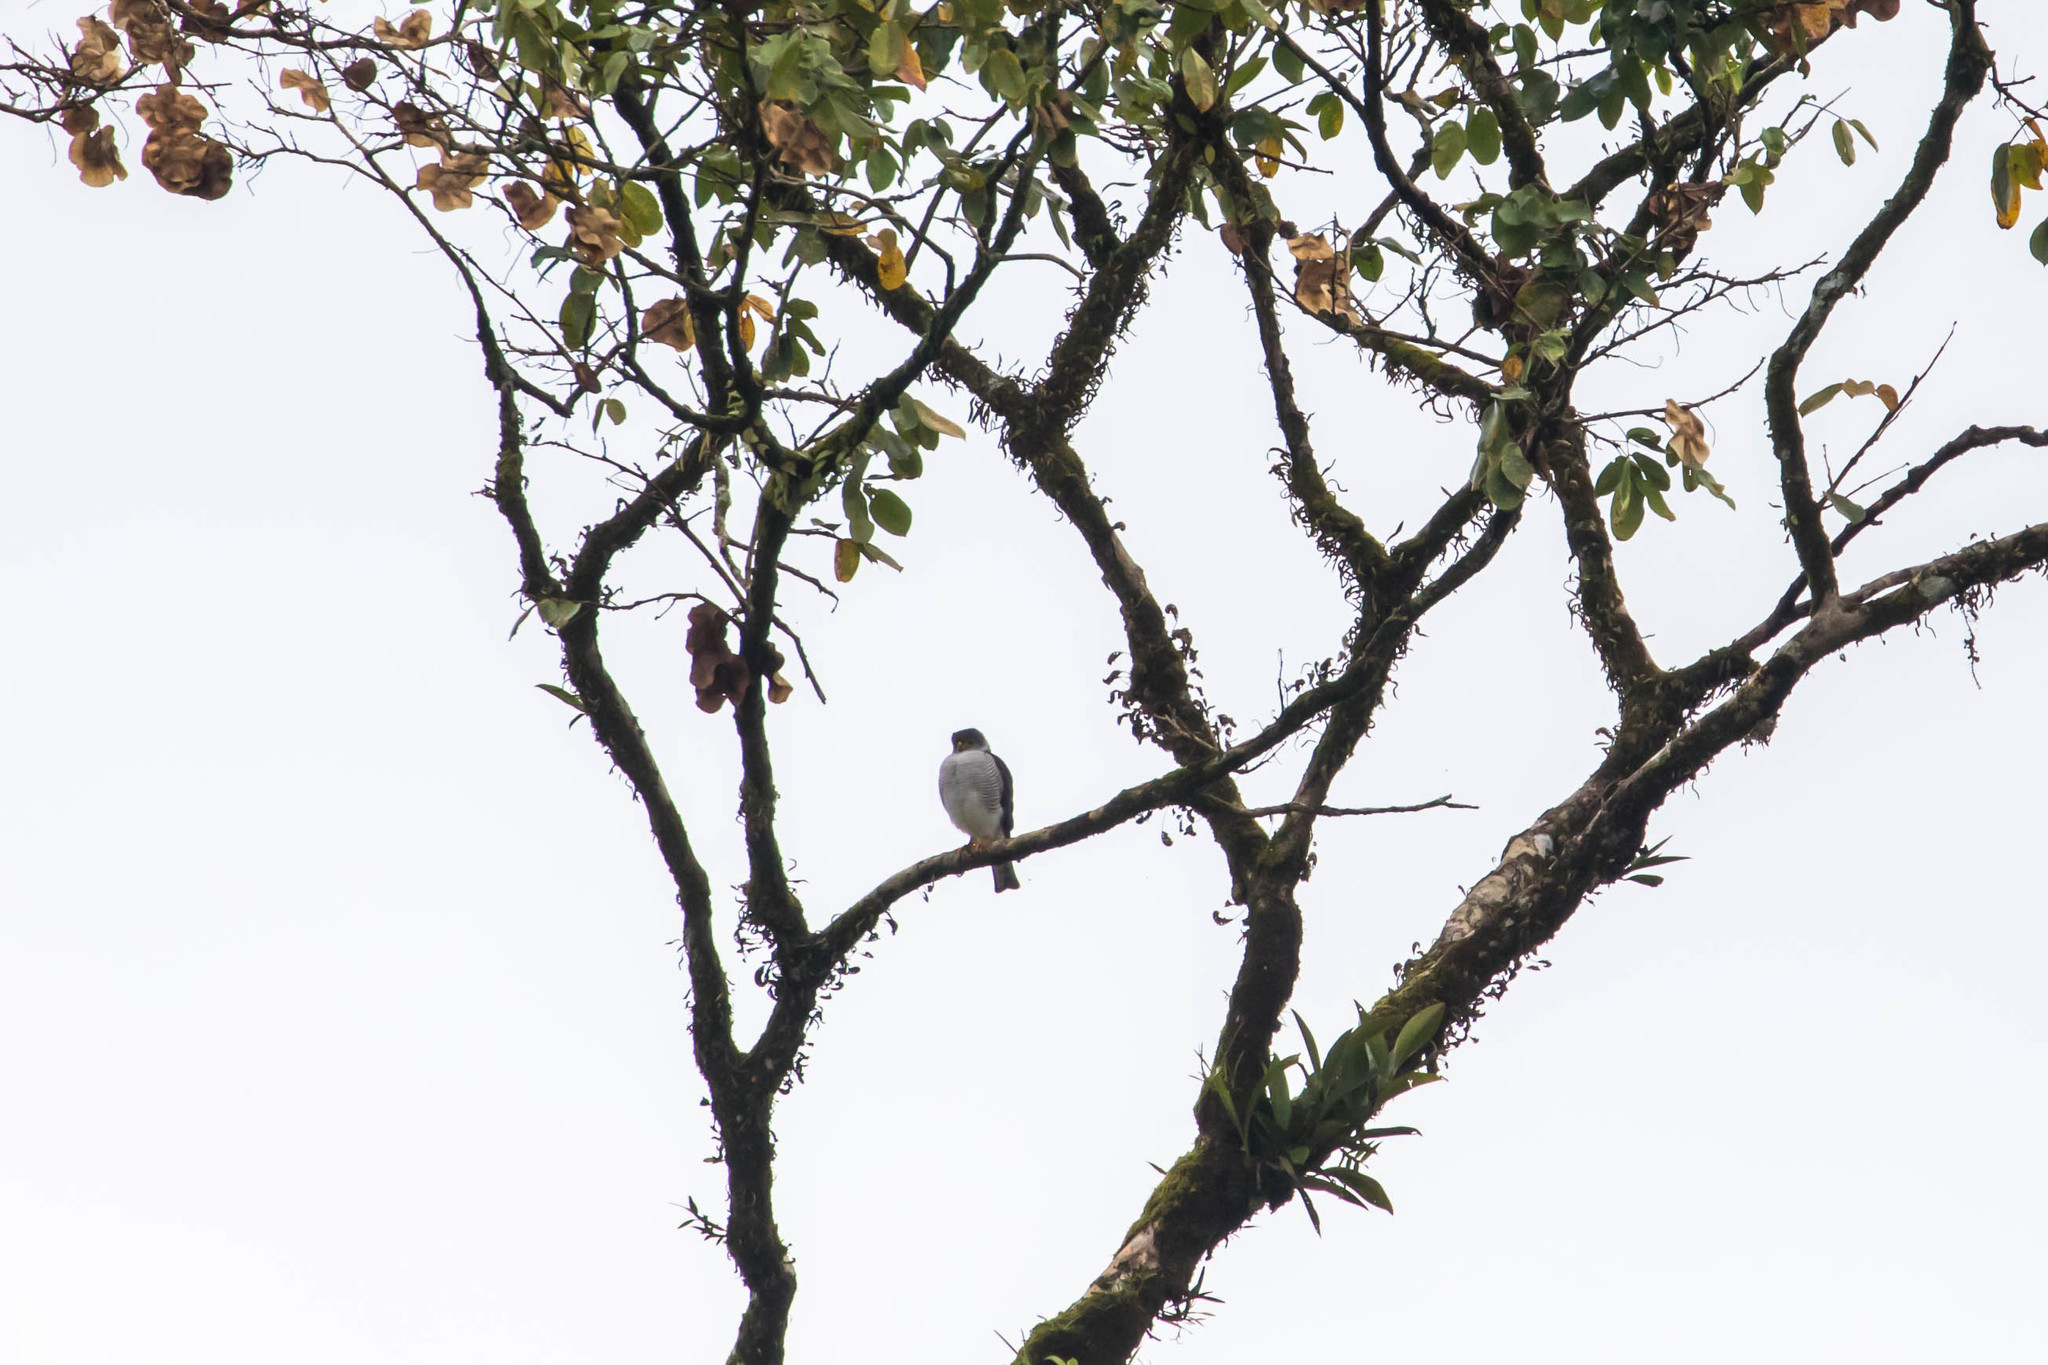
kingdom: Animalia
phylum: Chordata
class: Aves
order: Accipitriformes
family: Accipitridae
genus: Accipiter
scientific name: Accipiter superciliosus
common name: Tiny hawk
